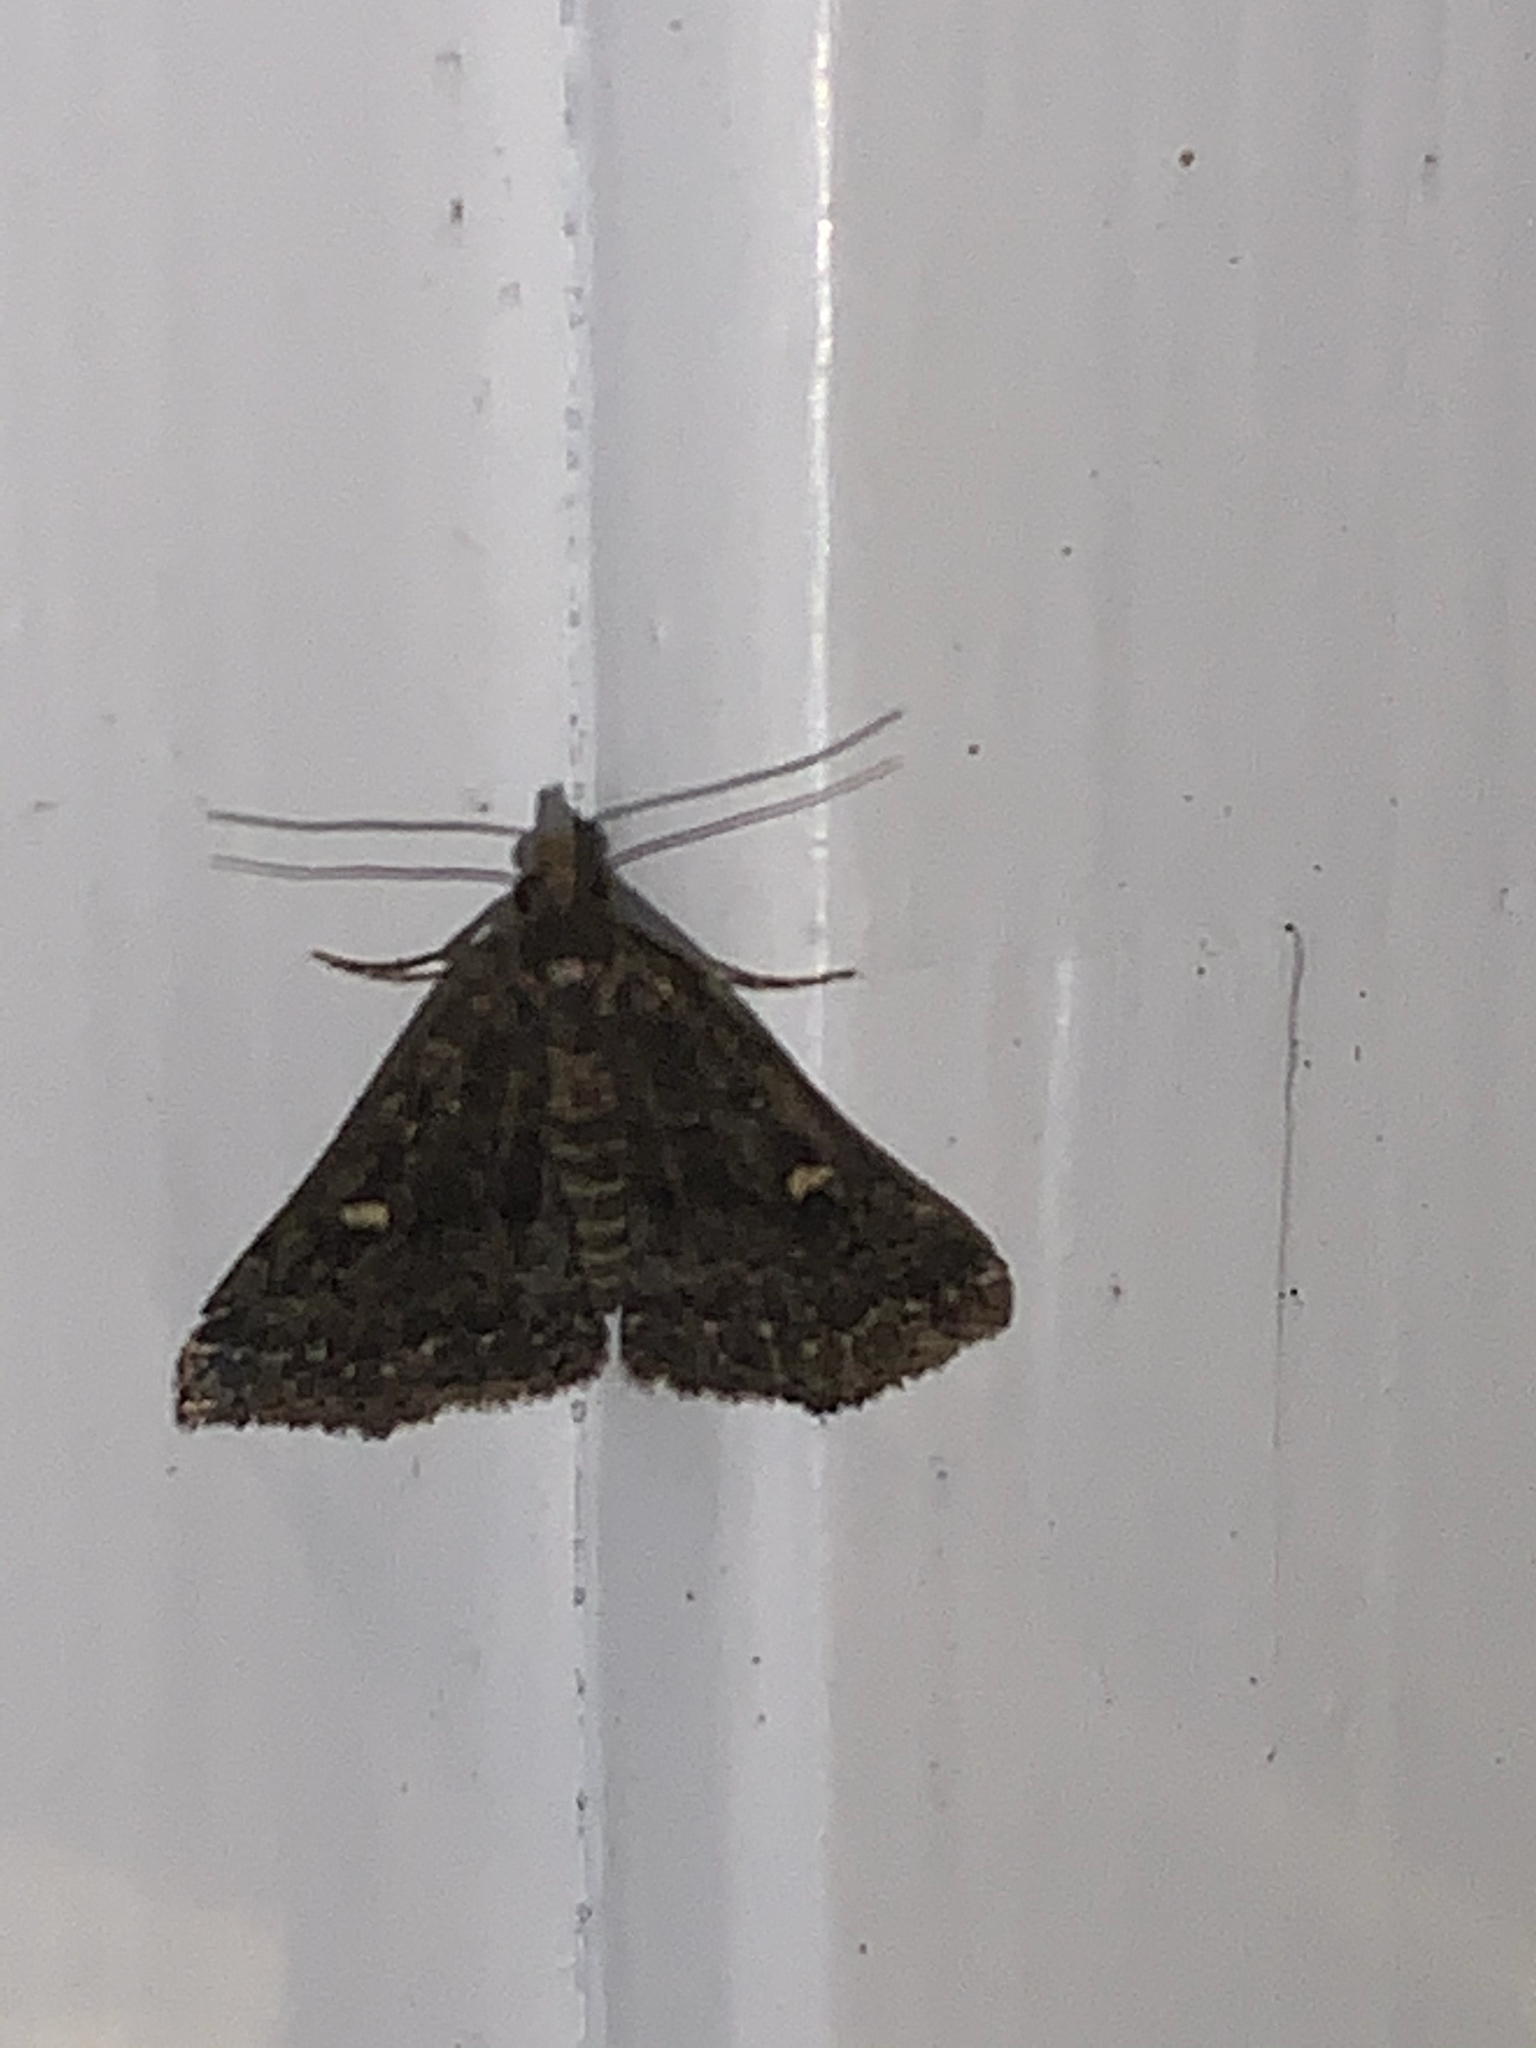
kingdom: Animalia
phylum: Arthropoda
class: Insecta
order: Lepidoptera
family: Erebidae
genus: Tetanolita
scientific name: Tetanolita mynesalis
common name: Smoky tetanolita moth
